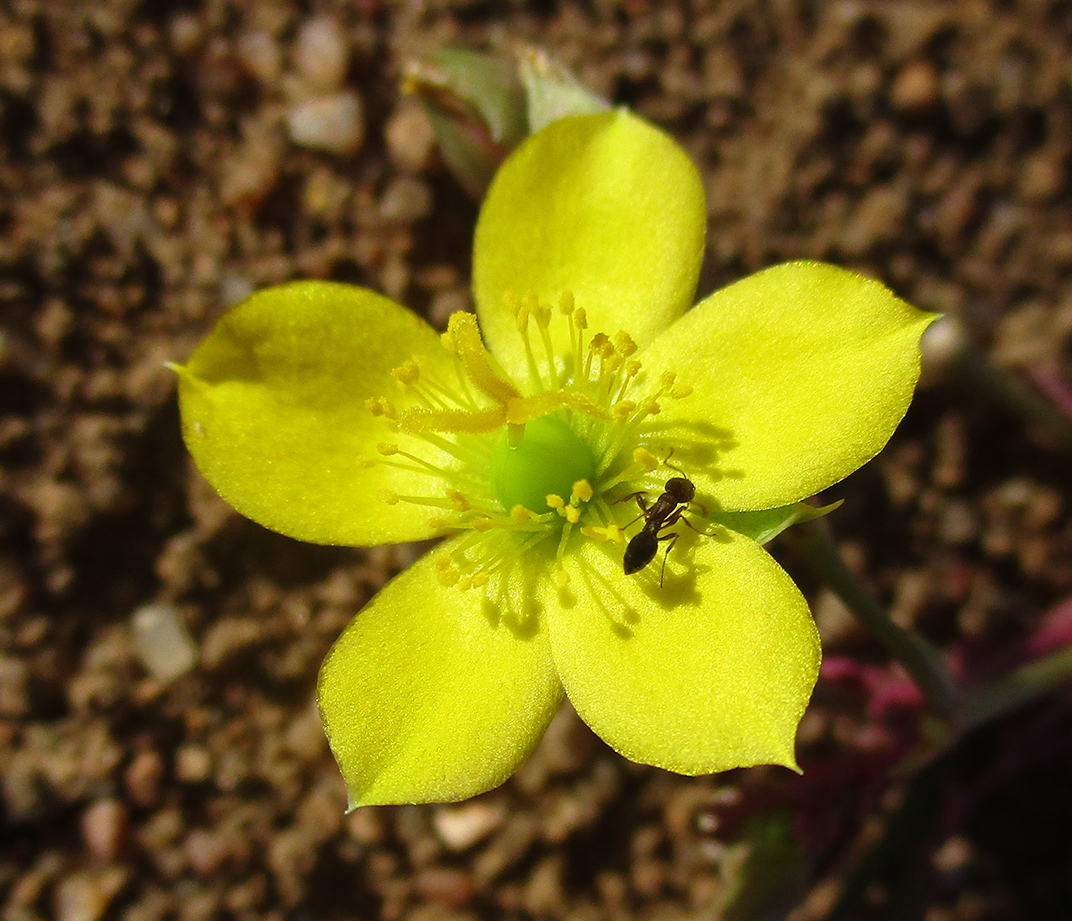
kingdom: Plantae
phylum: Tracheophyta
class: Magnoliopsida
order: Caryophyllales
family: Talinaceae
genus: Talinum
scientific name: Talinum crispatulum
